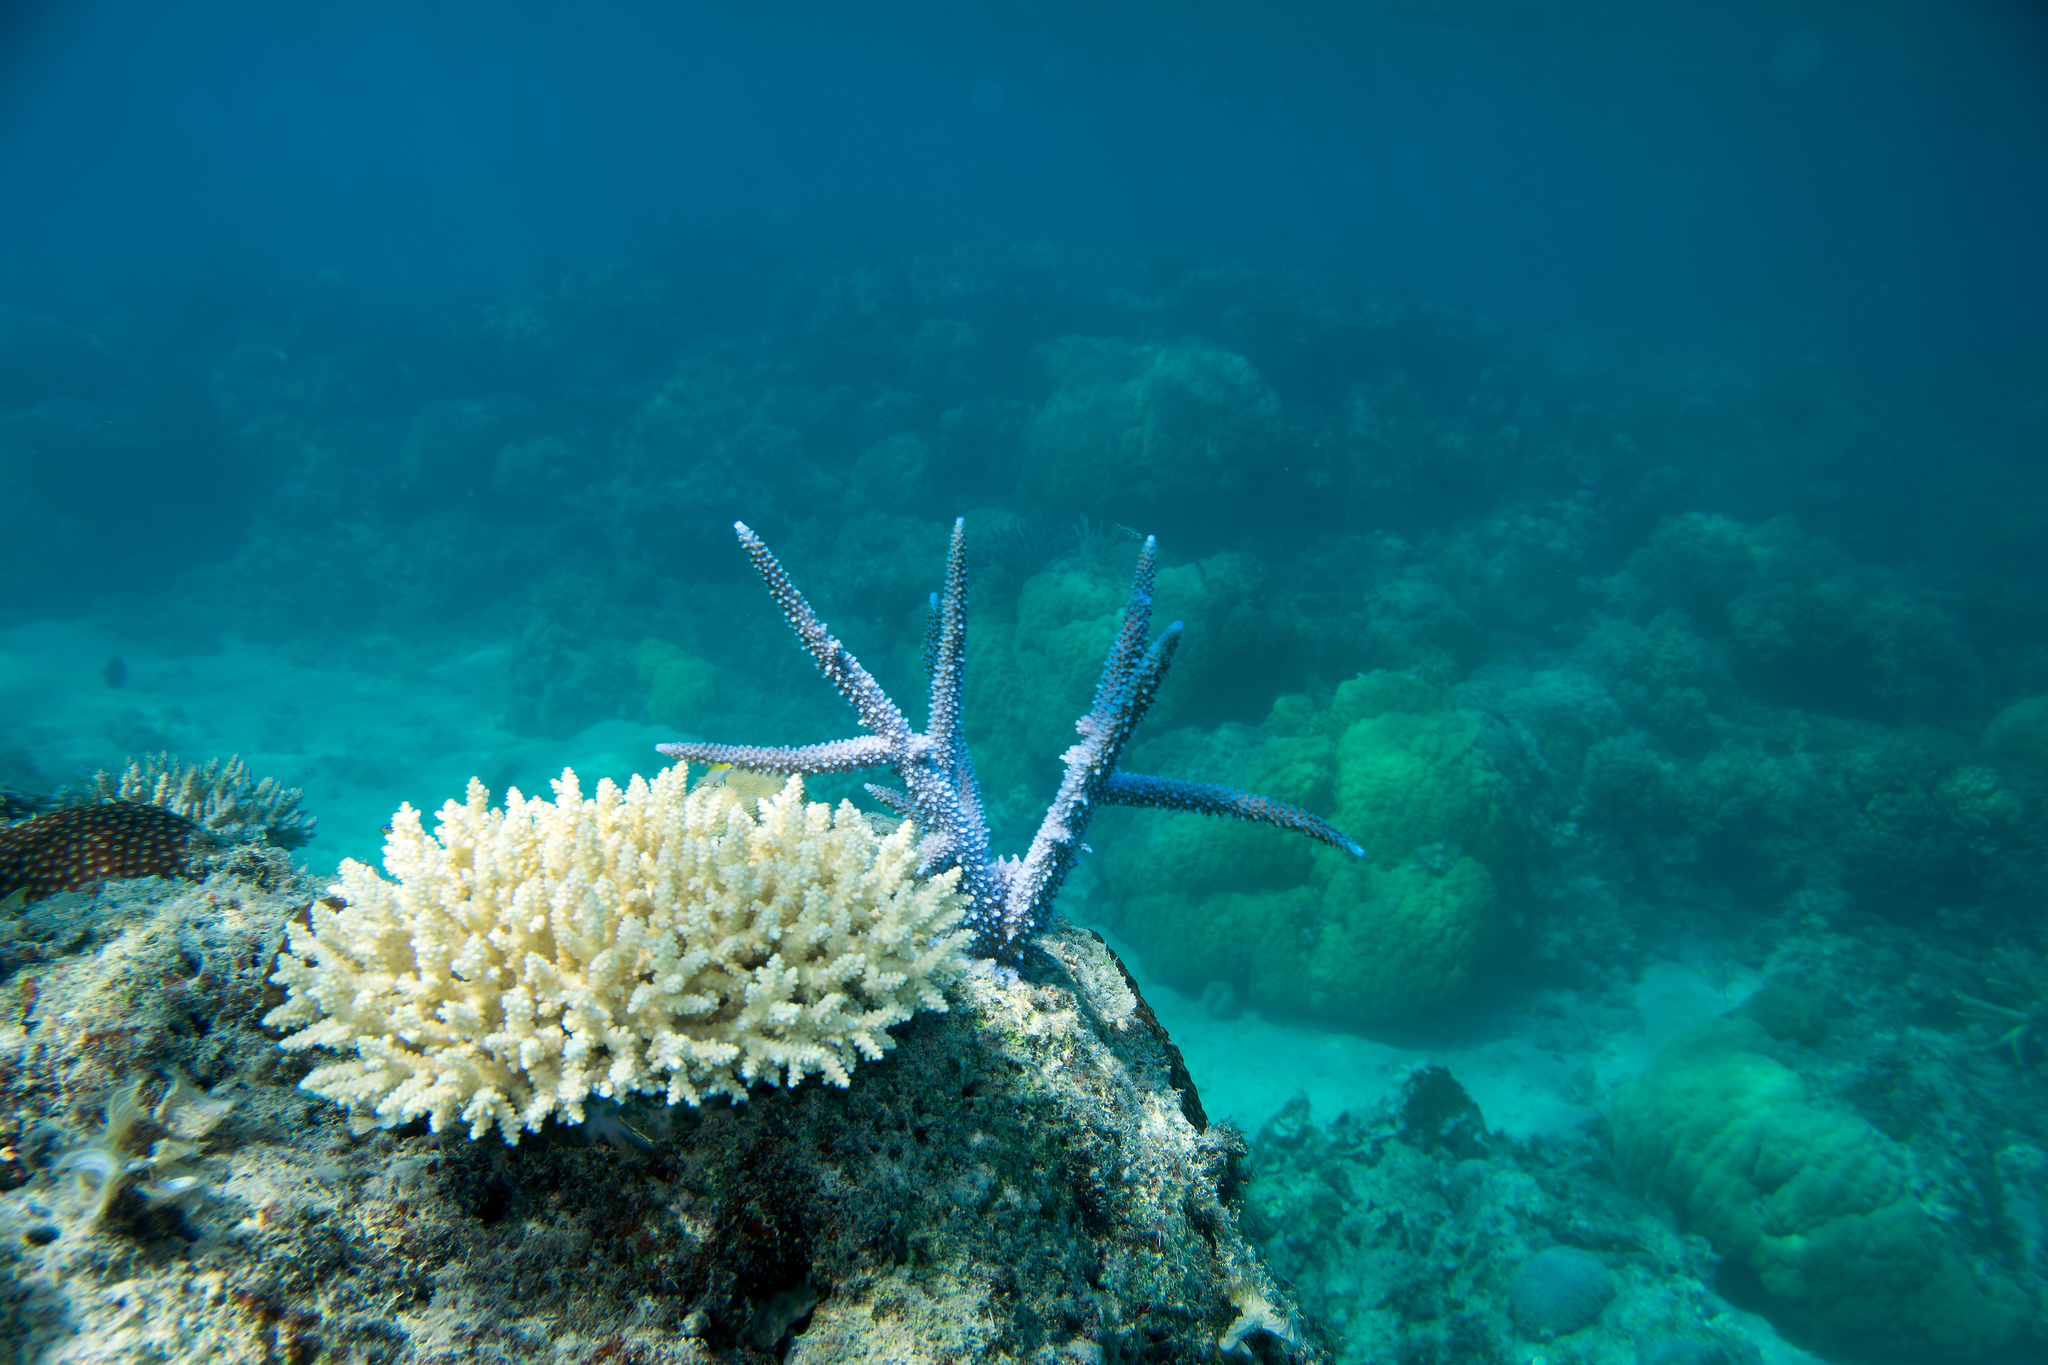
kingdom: Animalia
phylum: Cnidaria
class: Anthozoa
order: Scleractinia
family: Acroporidae
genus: Acropora
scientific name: Acropora muricata
